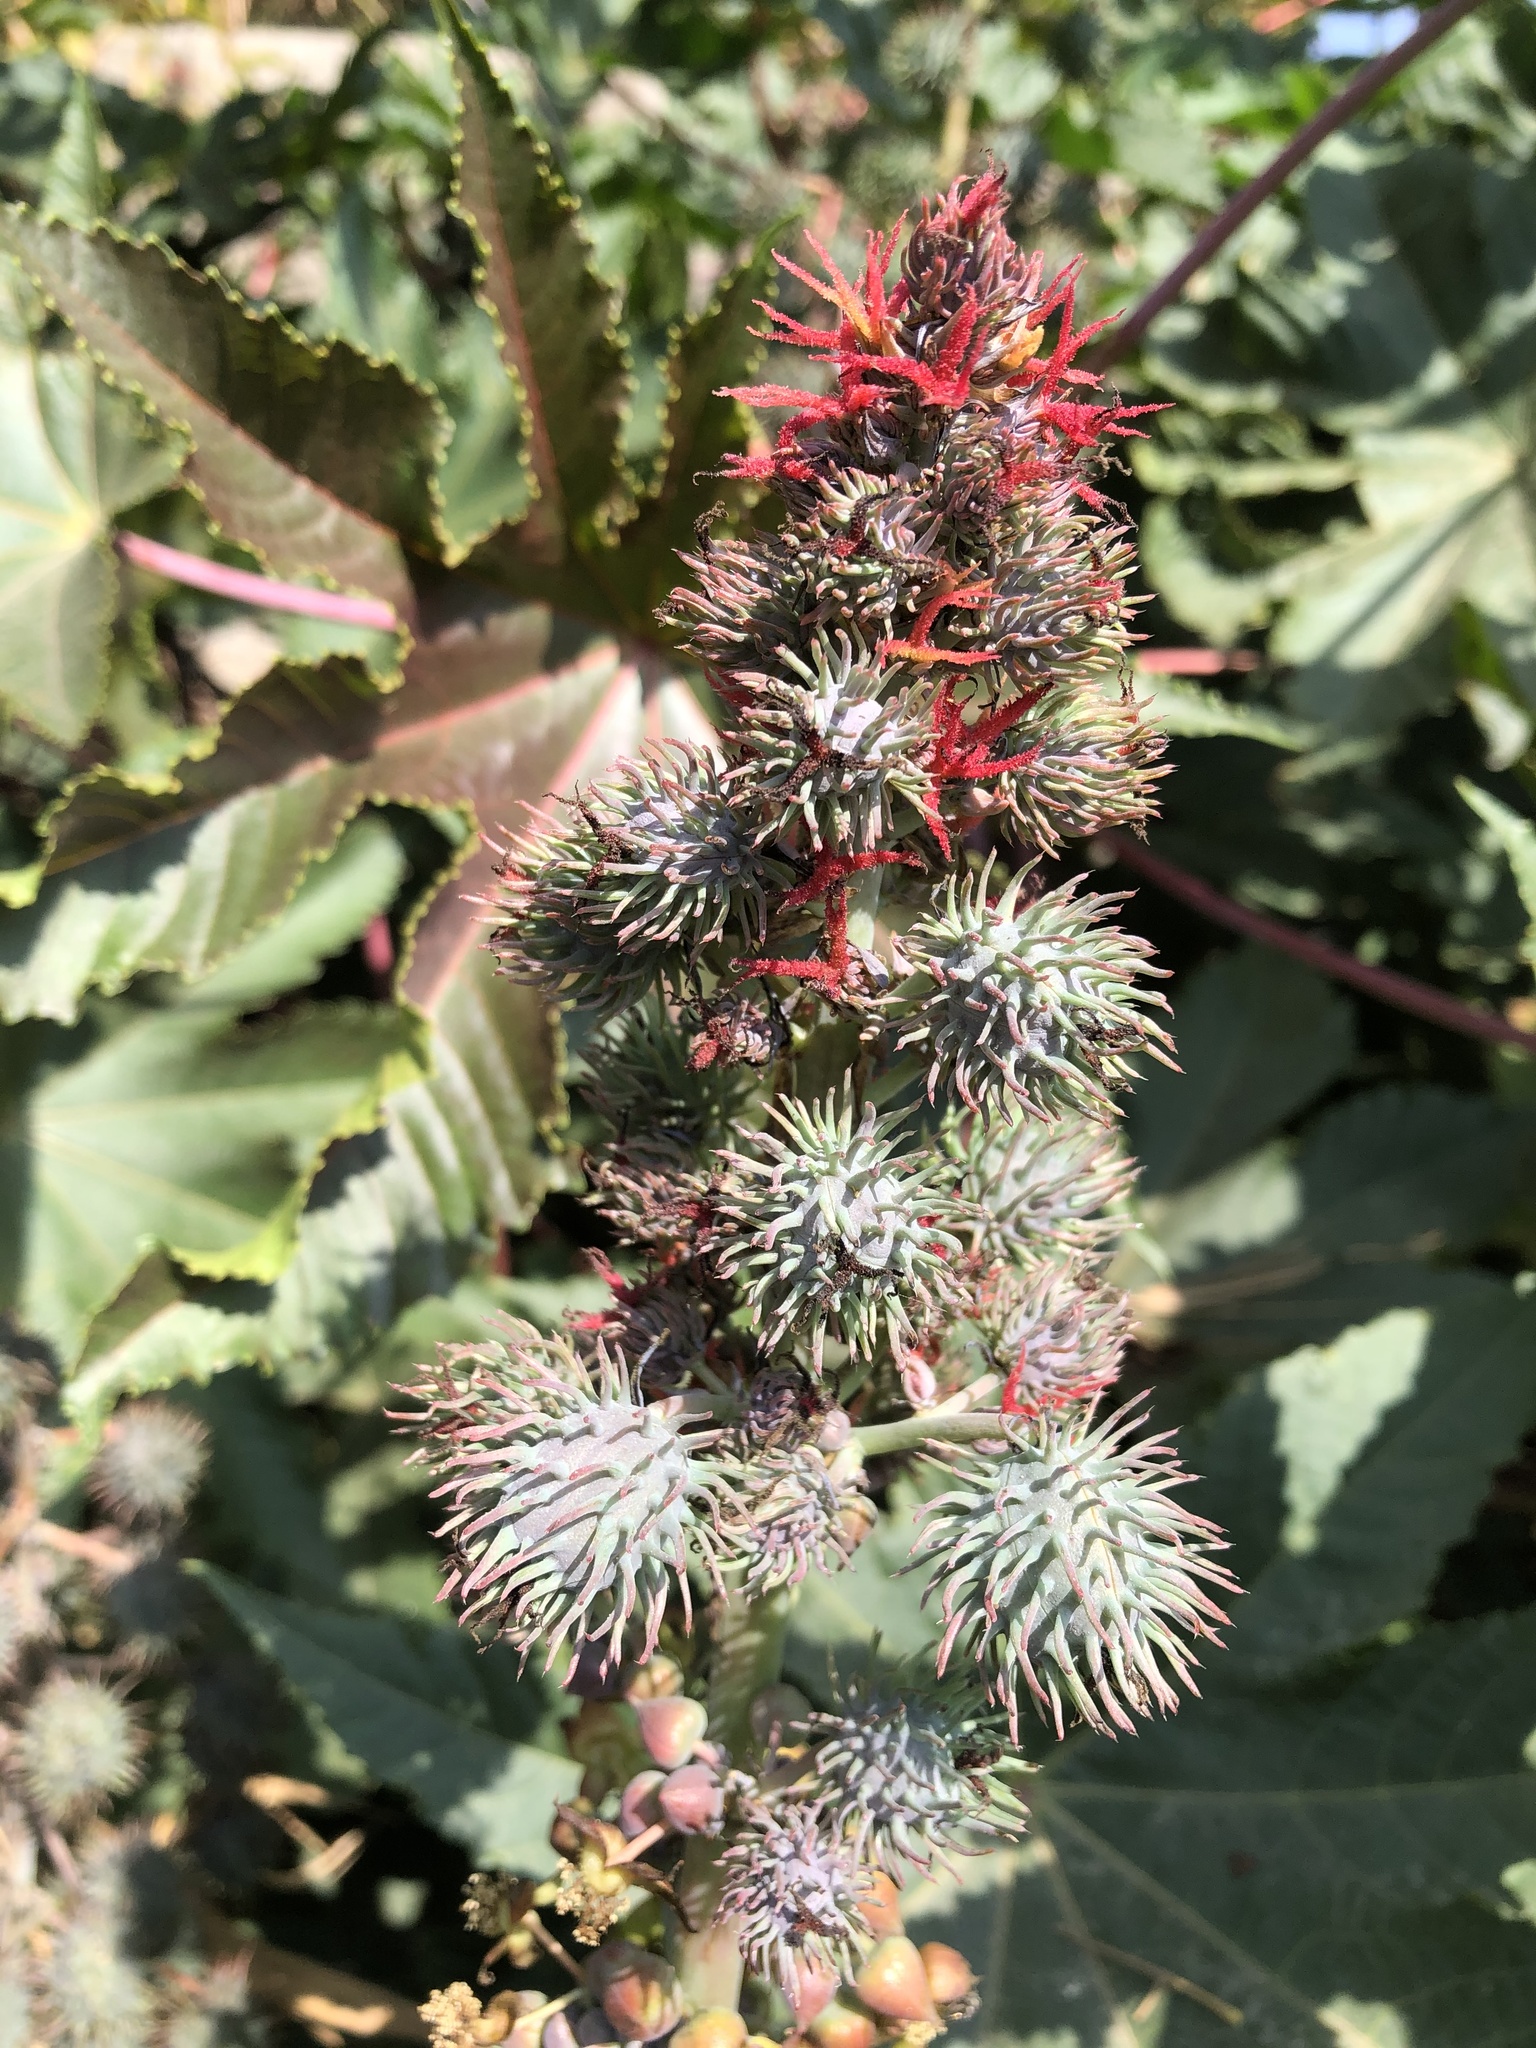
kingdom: Plantae
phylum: Tracheophyta
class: Magnoliopsida
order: Malpighiales
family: Euphorbiaceae
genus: Ricinus
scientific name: Ricinus communis
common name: Castor-oil-plant
